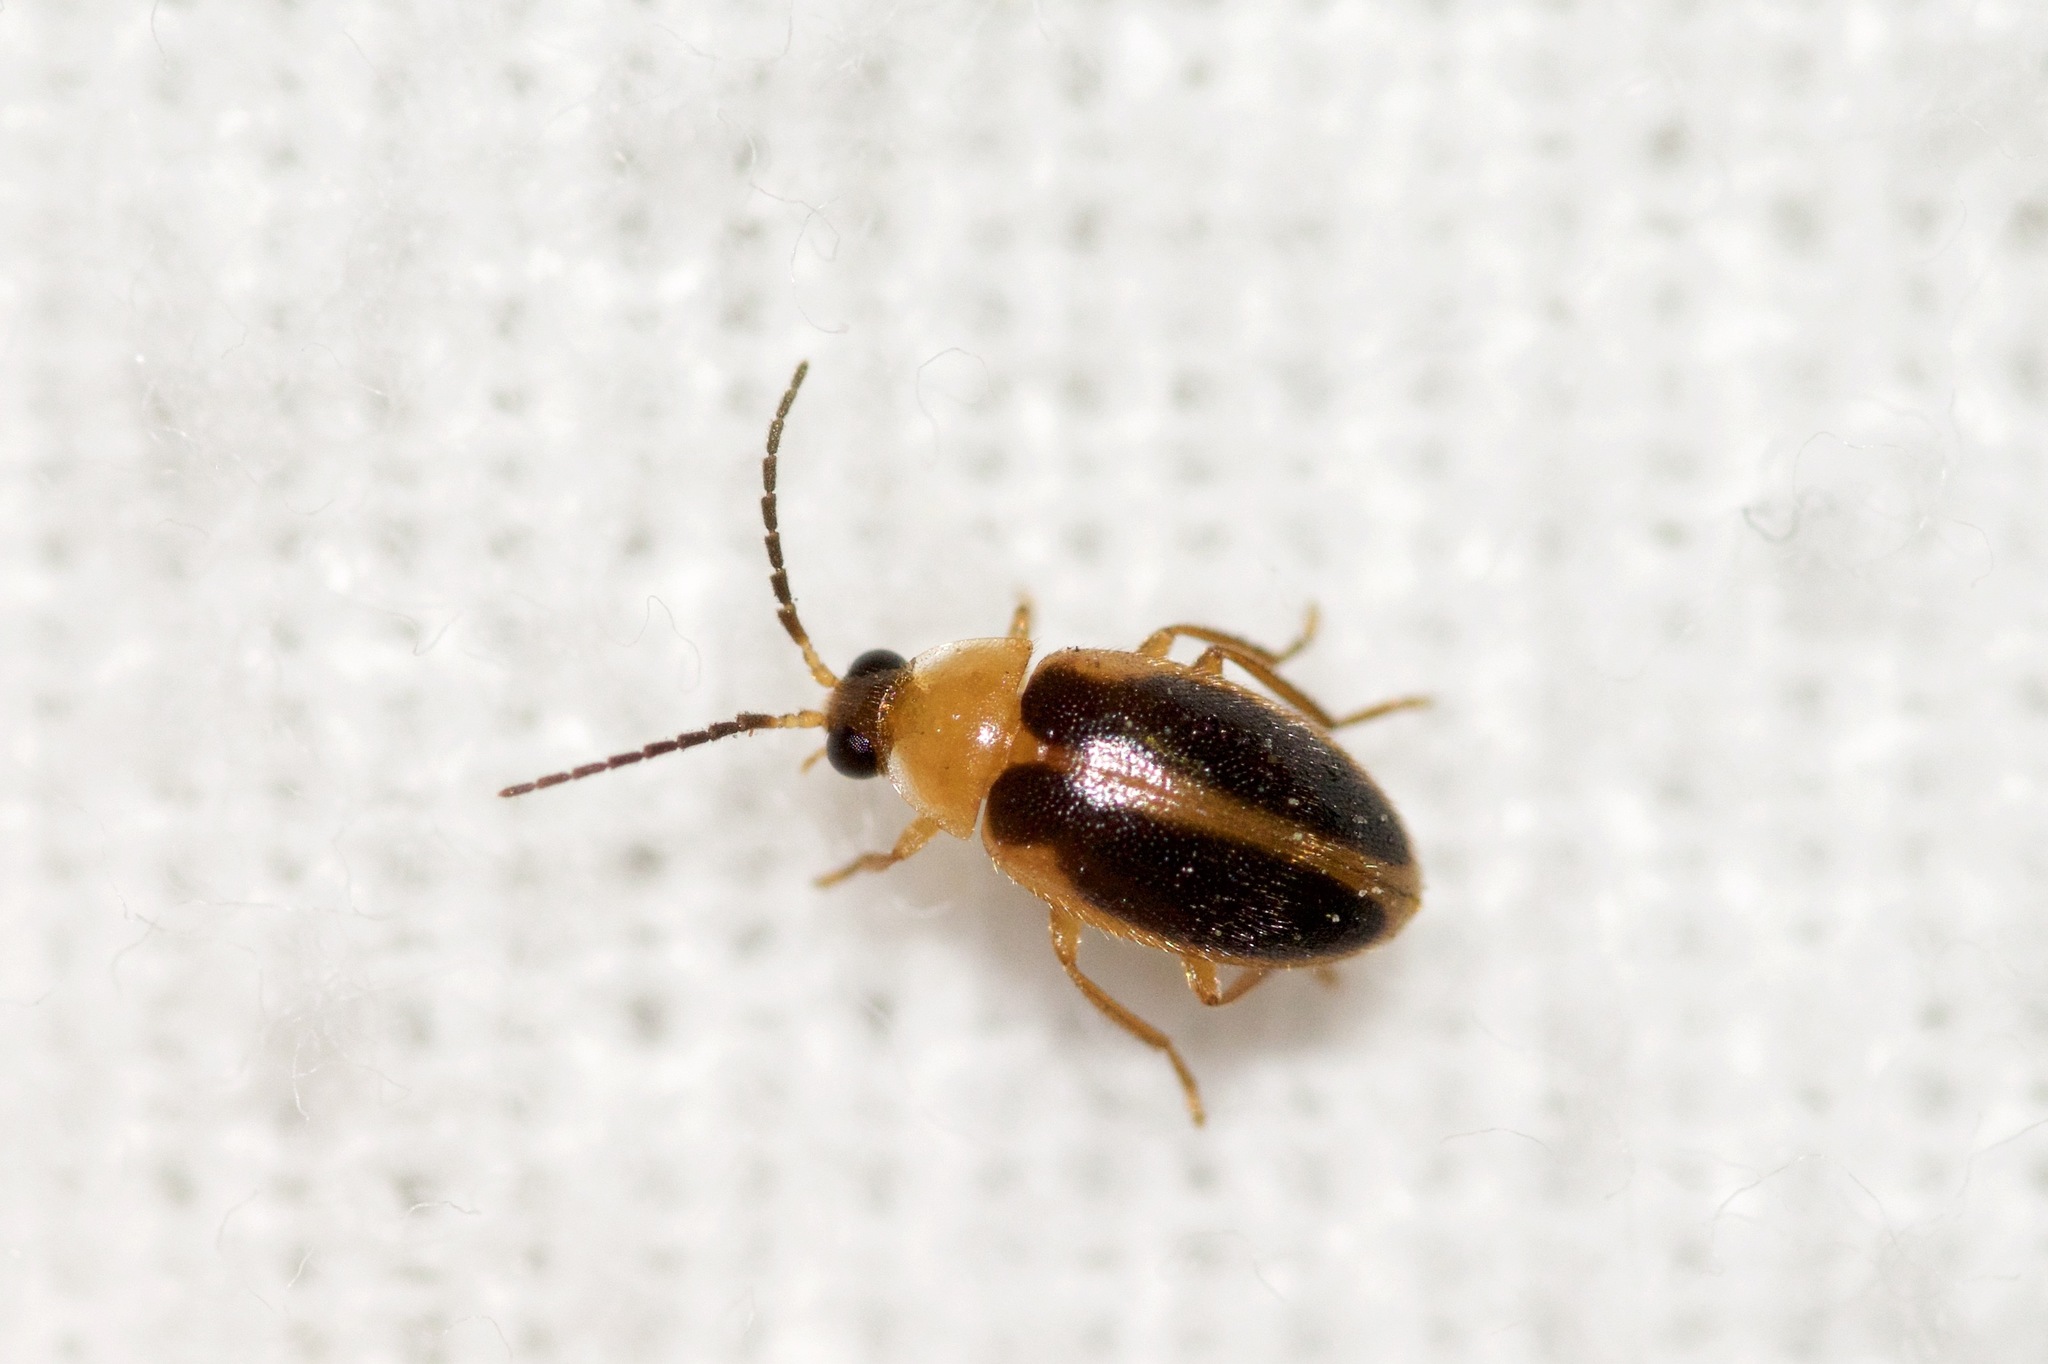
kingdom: Animalia
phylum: Arthropoda
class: Insecta
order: Coleoptera
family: Scirtidae
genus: Sacodes
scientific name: Sacodes pulchella
